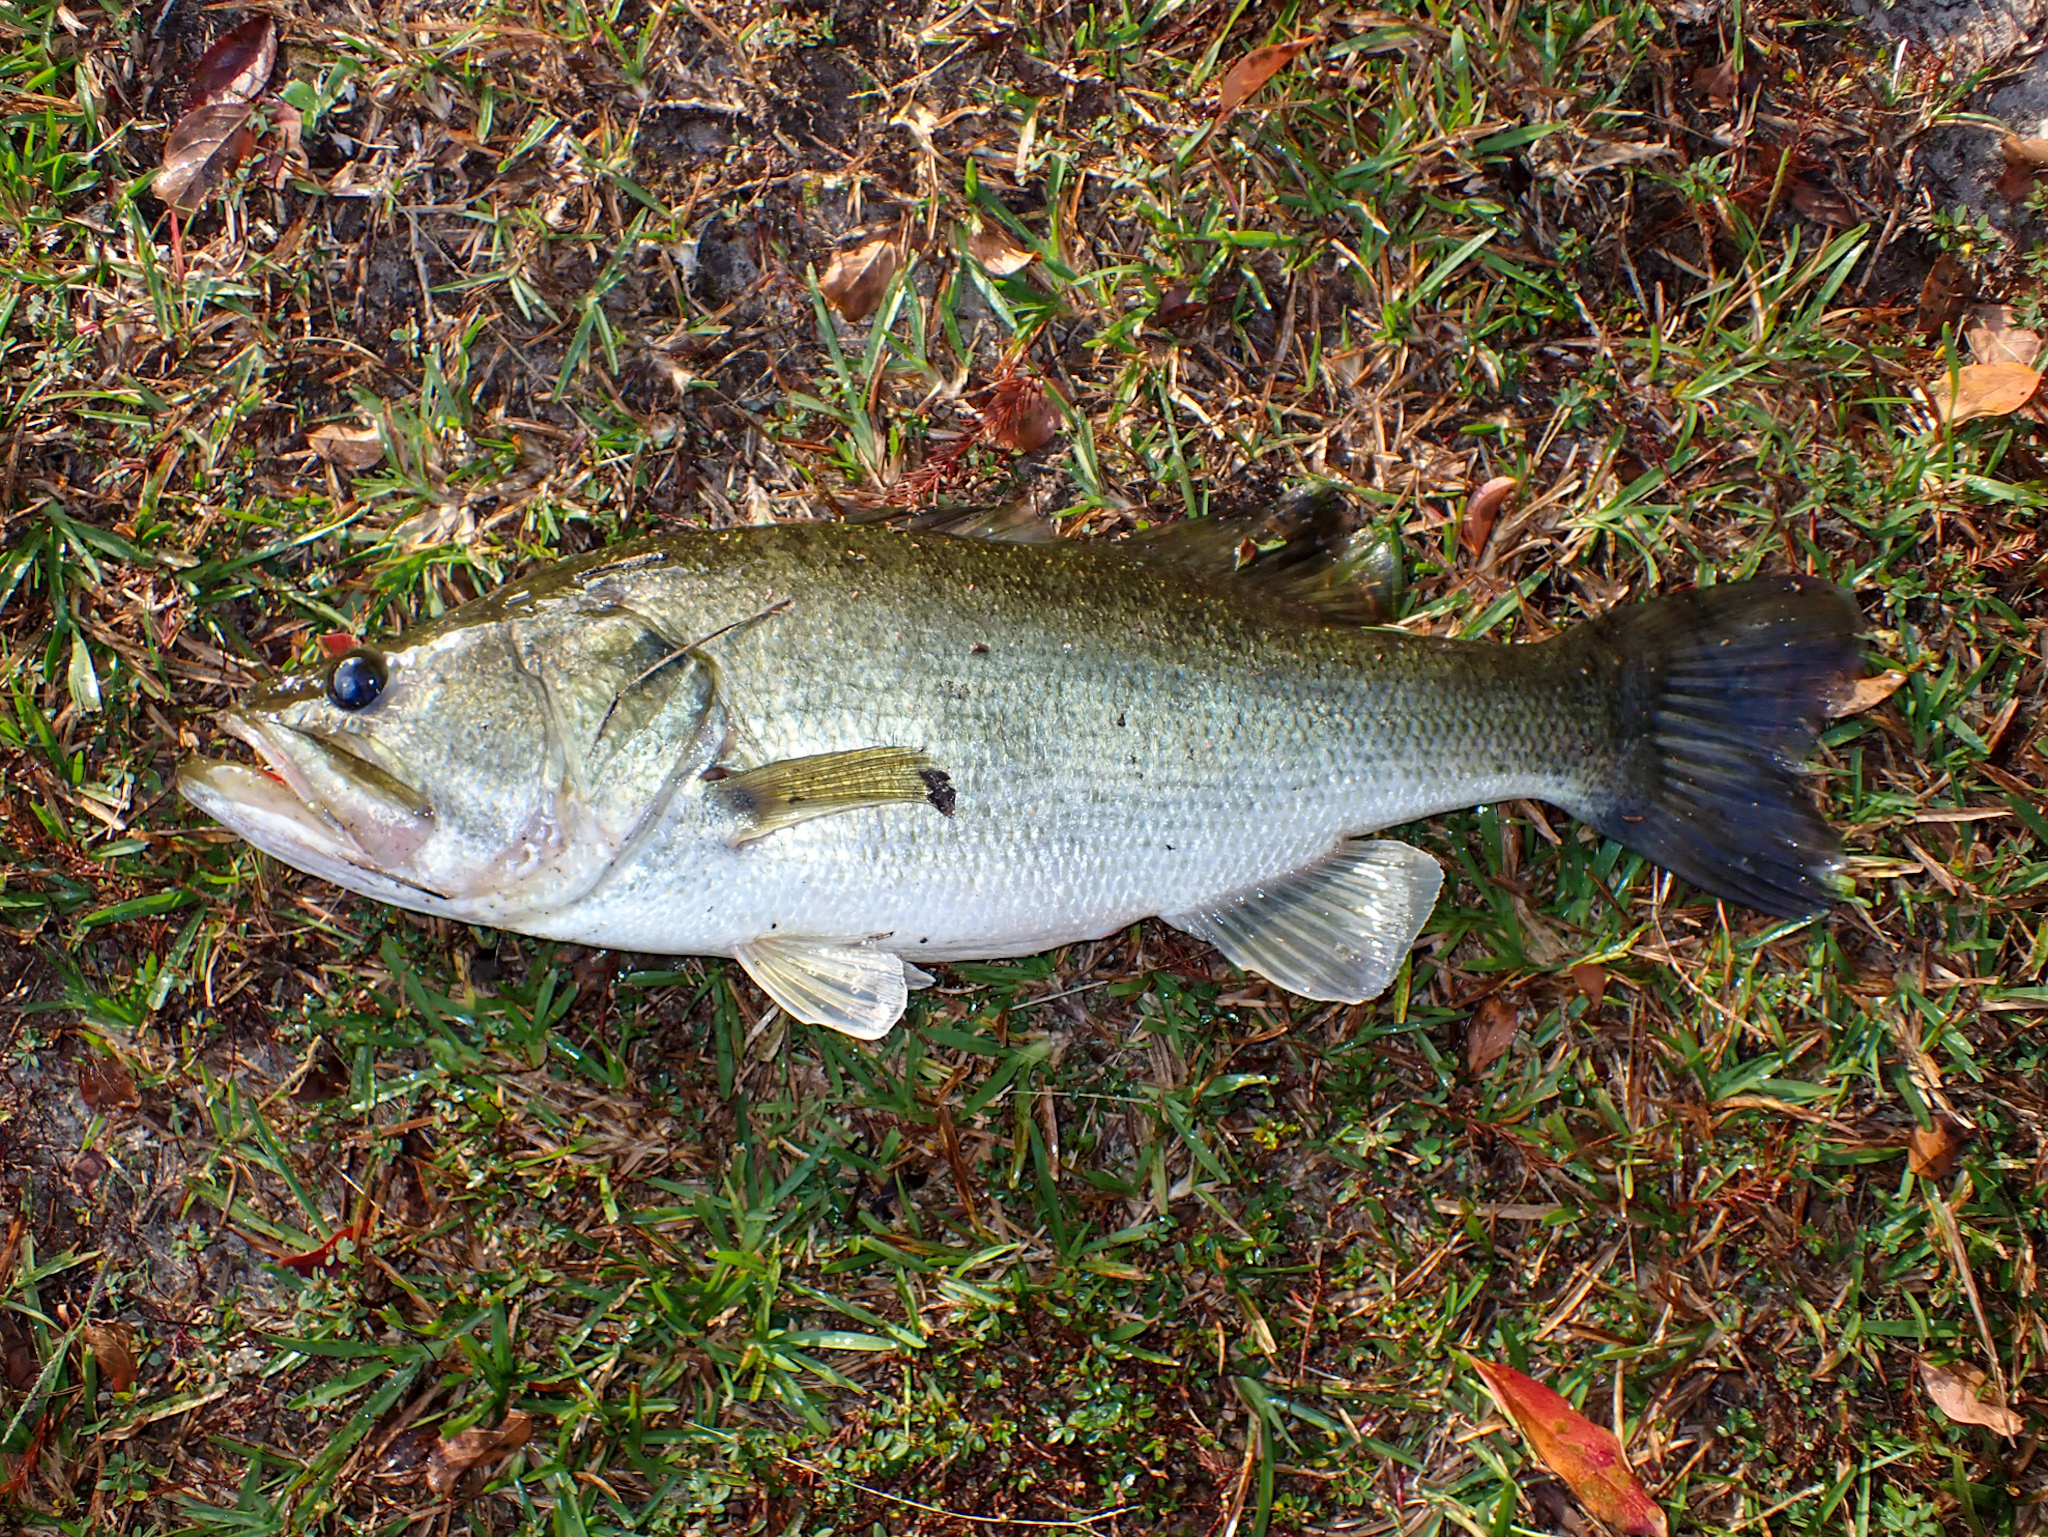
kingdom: Animalia
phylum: Chordata
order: Perciformes
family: Centrarchidae
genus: Micropterus
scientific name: Micropterus salmoides
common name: Largemouth bass
